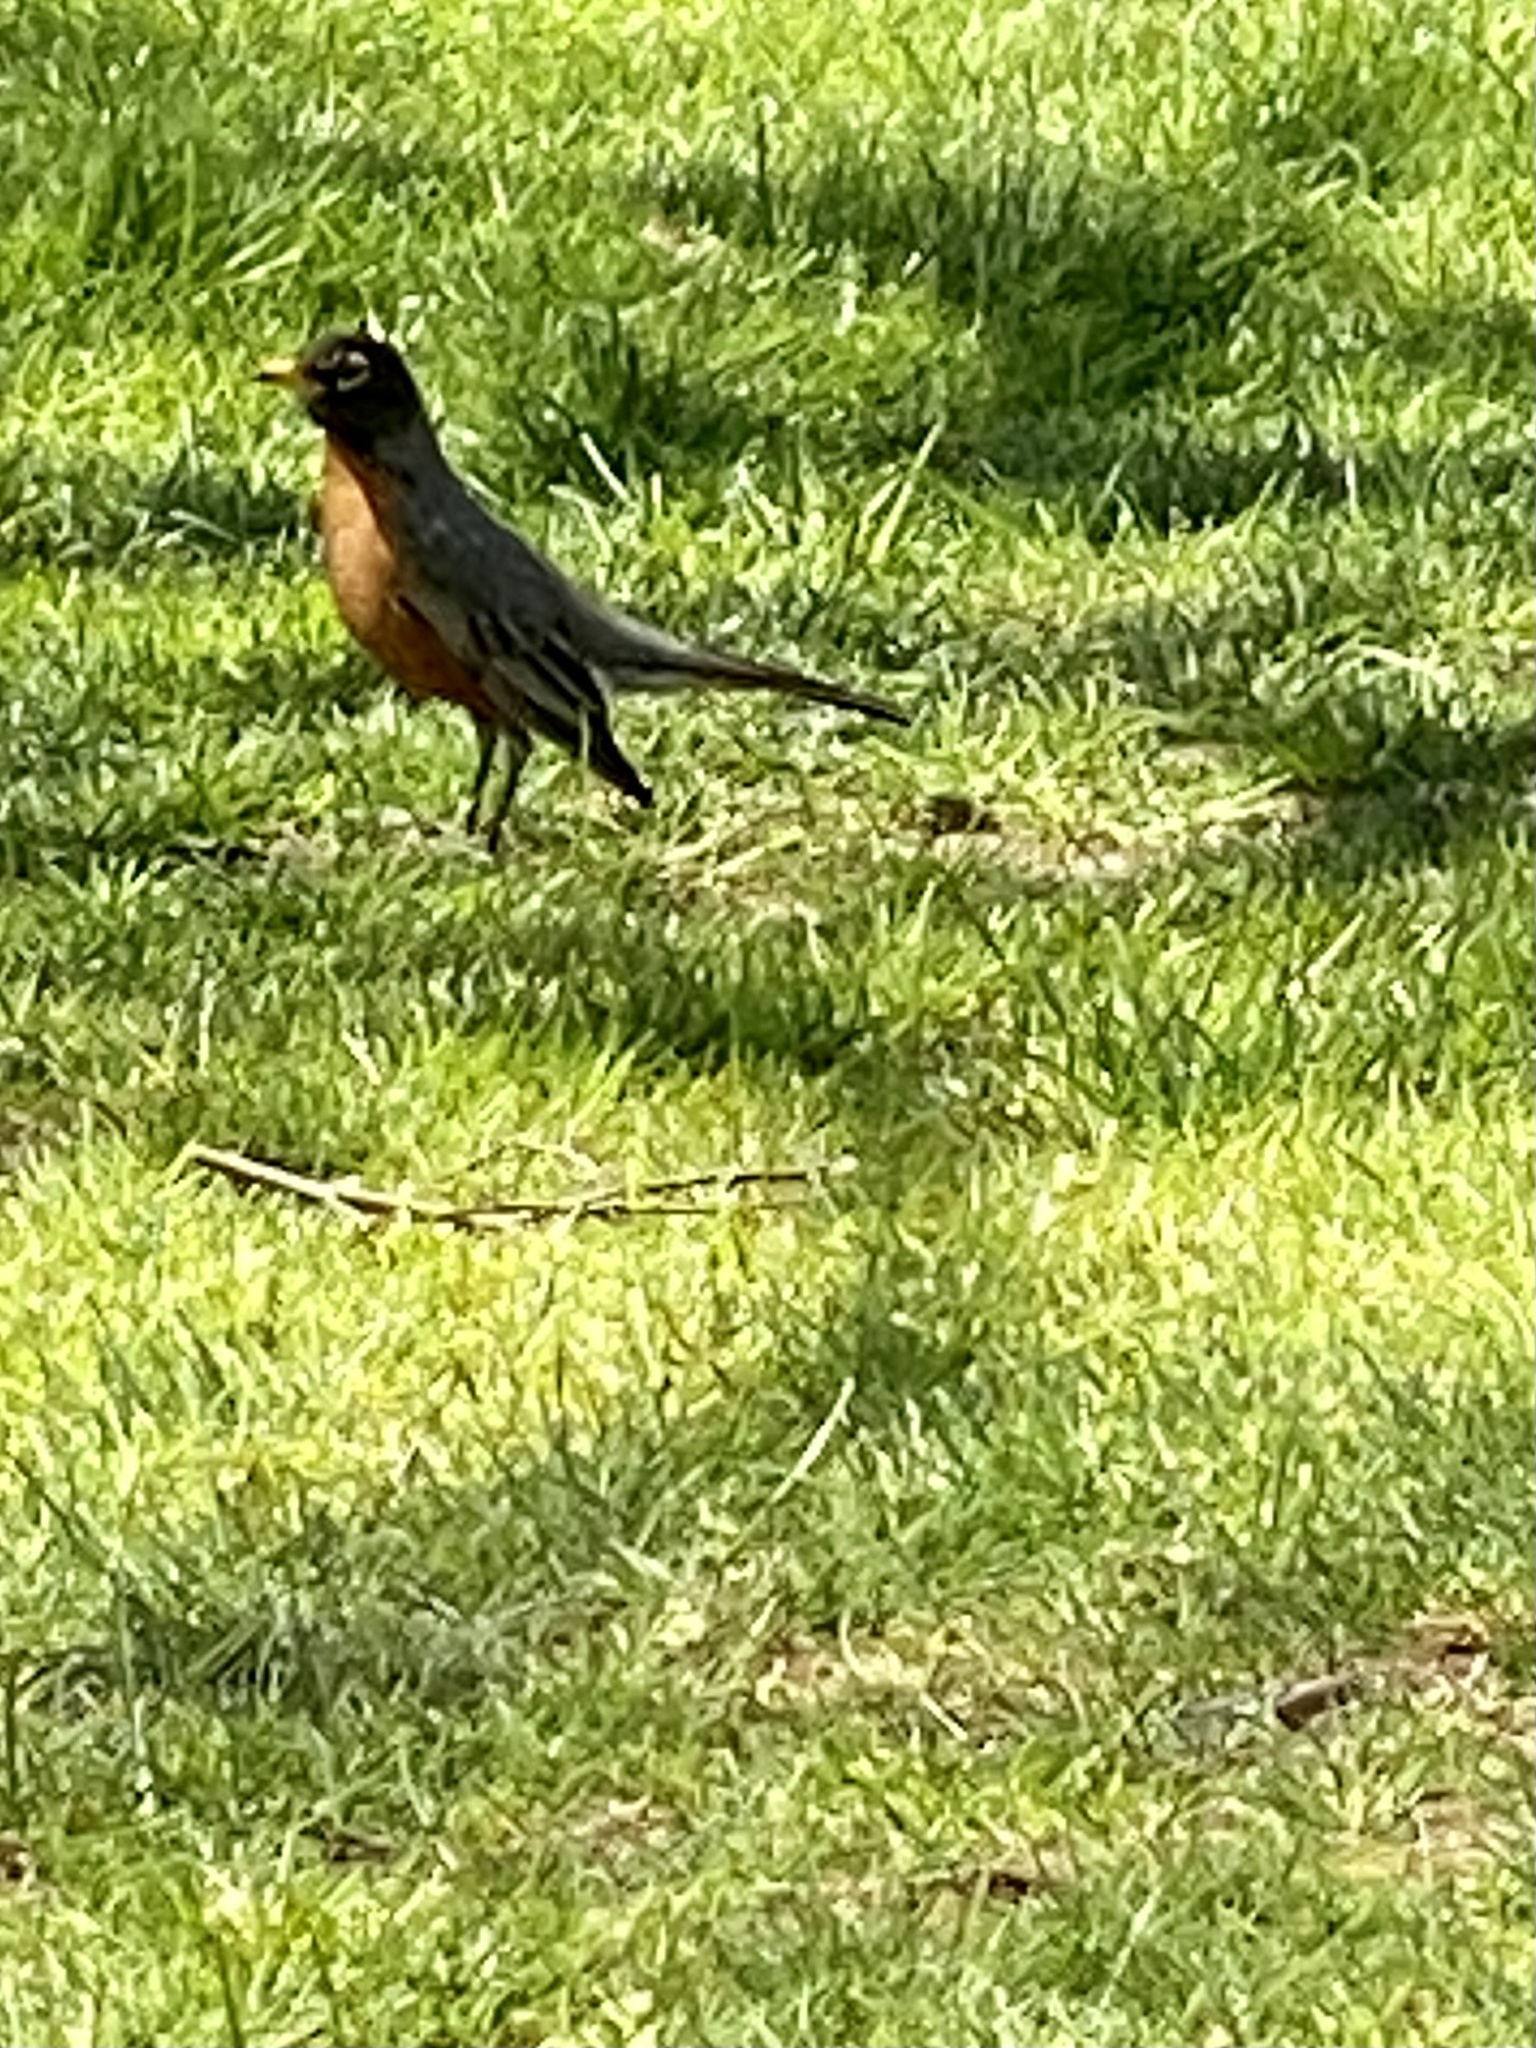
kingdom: Animalia
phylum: Chordata
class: Aves
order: Passeriformes
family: Turdidae
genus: Turdus
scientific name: Turdus migratorius
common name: American robin
